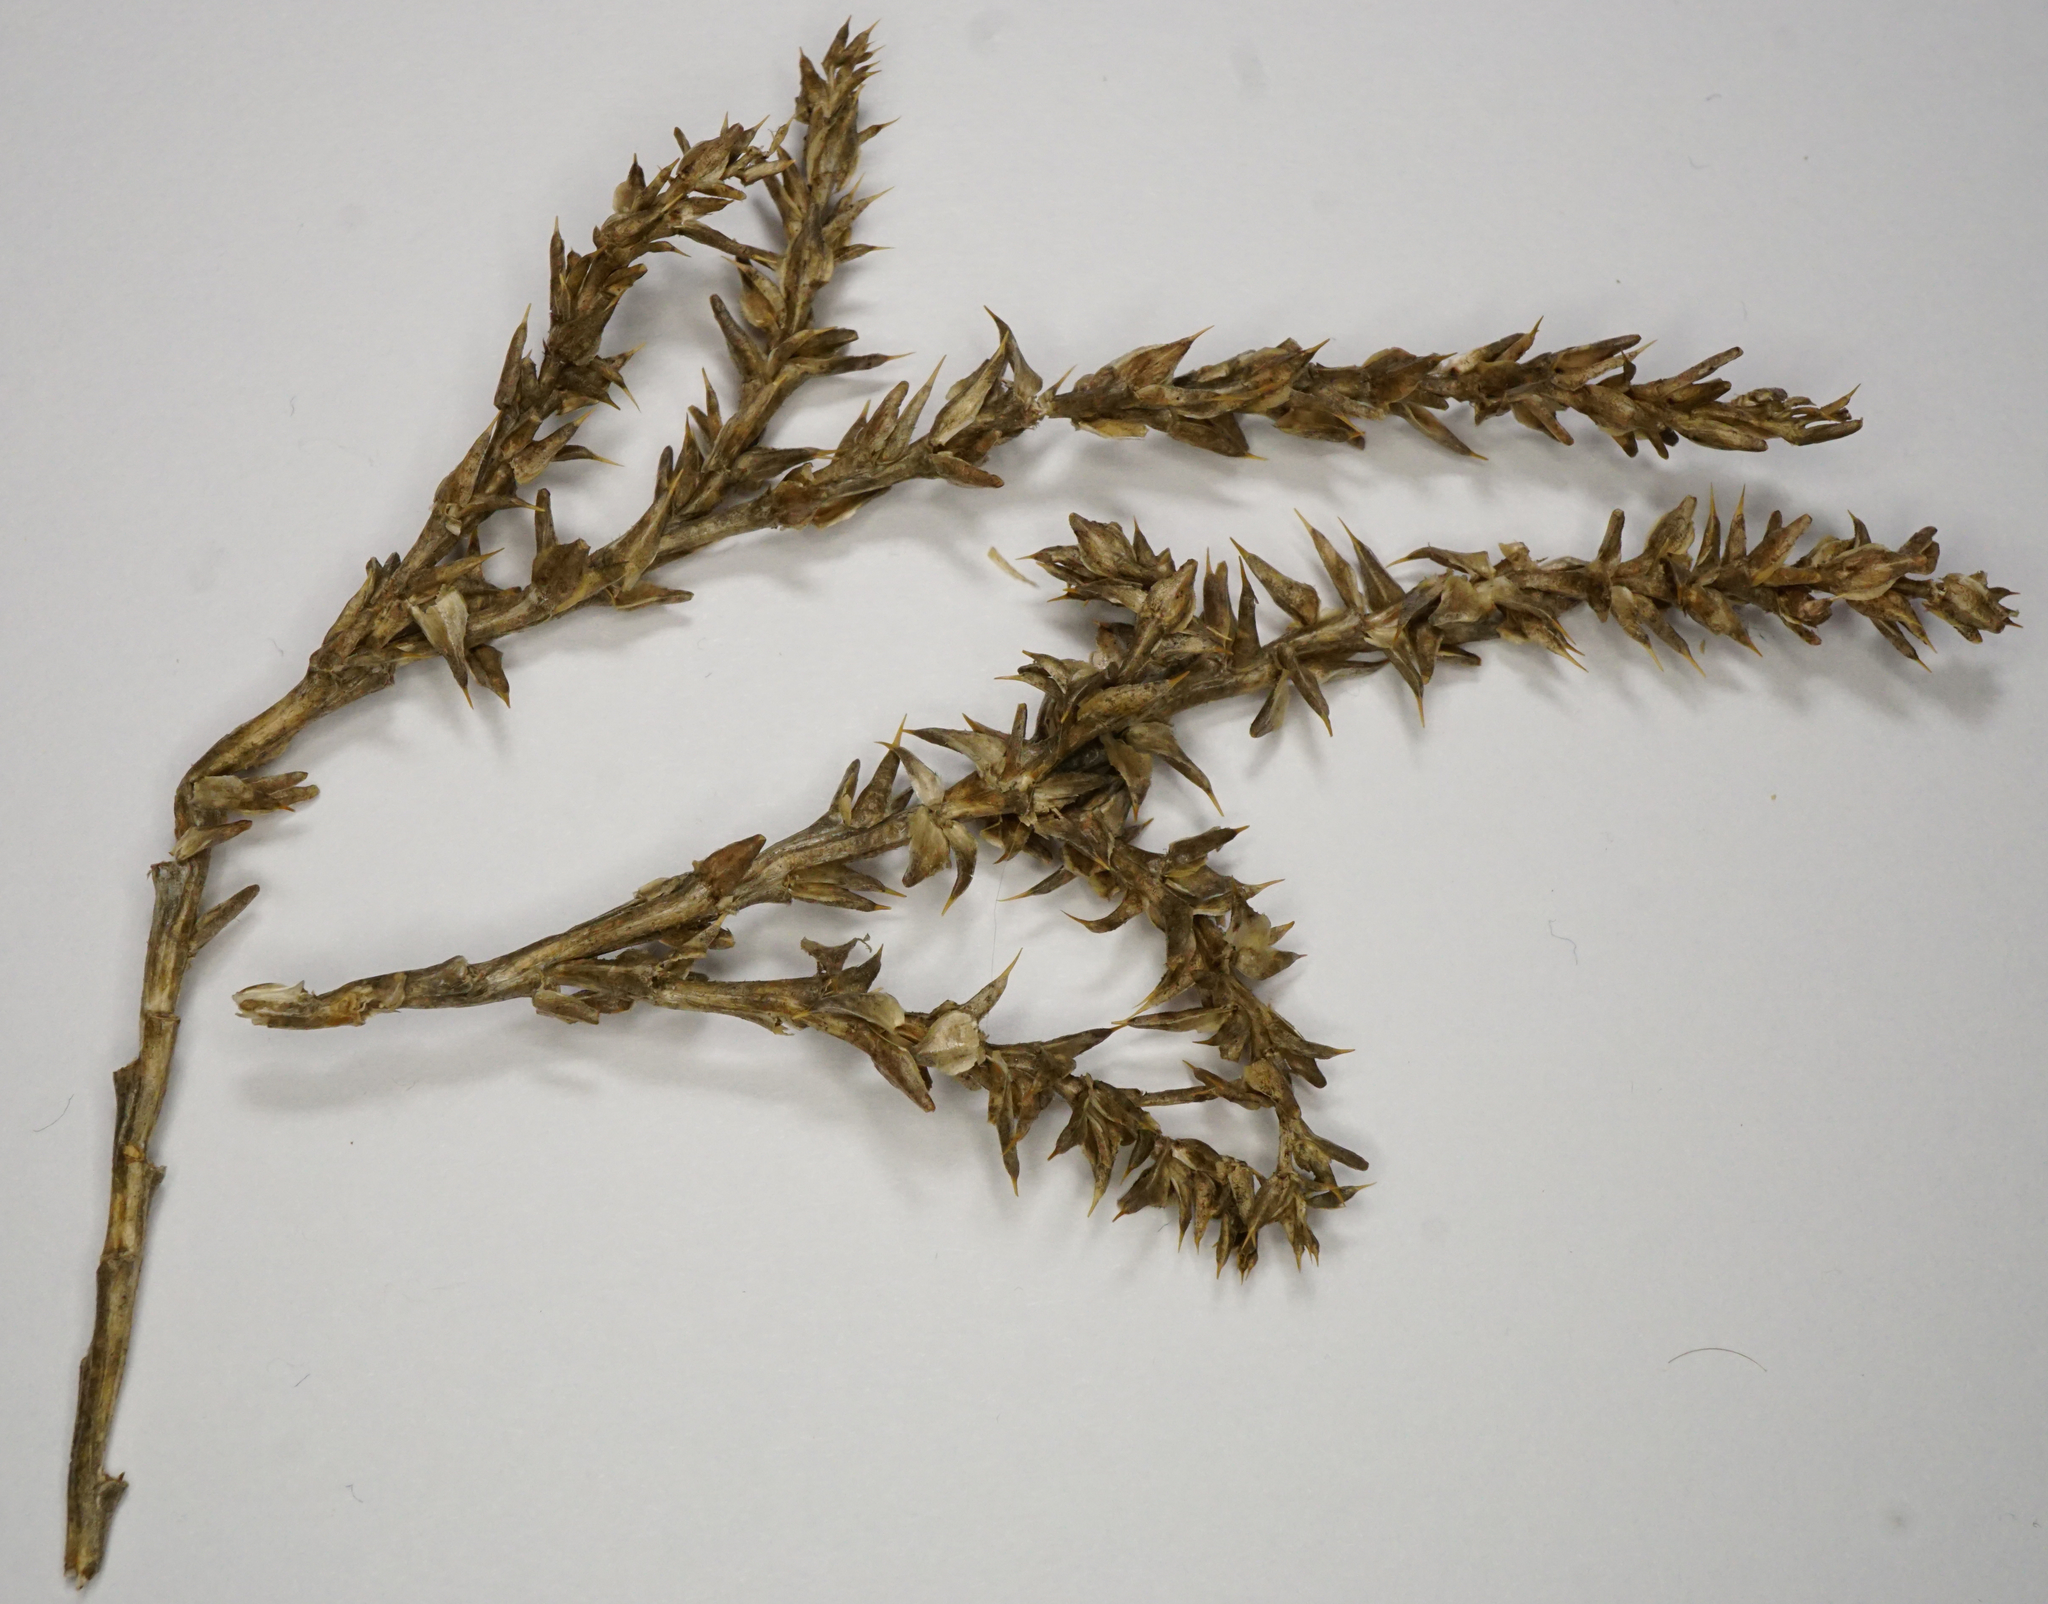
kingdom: Plantae
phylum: Tracheophyta
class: Magnoliopsida
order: Caryophyllales
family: Amaranthaceae
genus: Salsola
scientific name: Salsola tragus
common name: Prickly russian thistle
